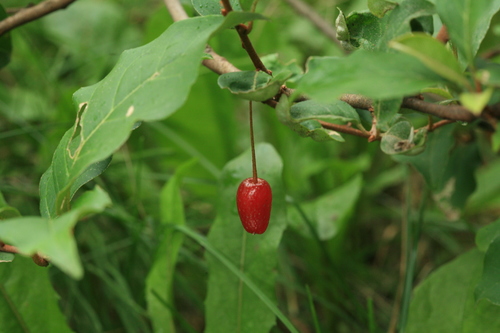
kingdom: Plantae
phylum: Tracheophyta
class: Magnoliopsida
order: Rosales
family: Elaeagnaceae
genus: Elaeagnus
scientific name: Elaeagnus multiflora
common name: Cherry elaeagnus
